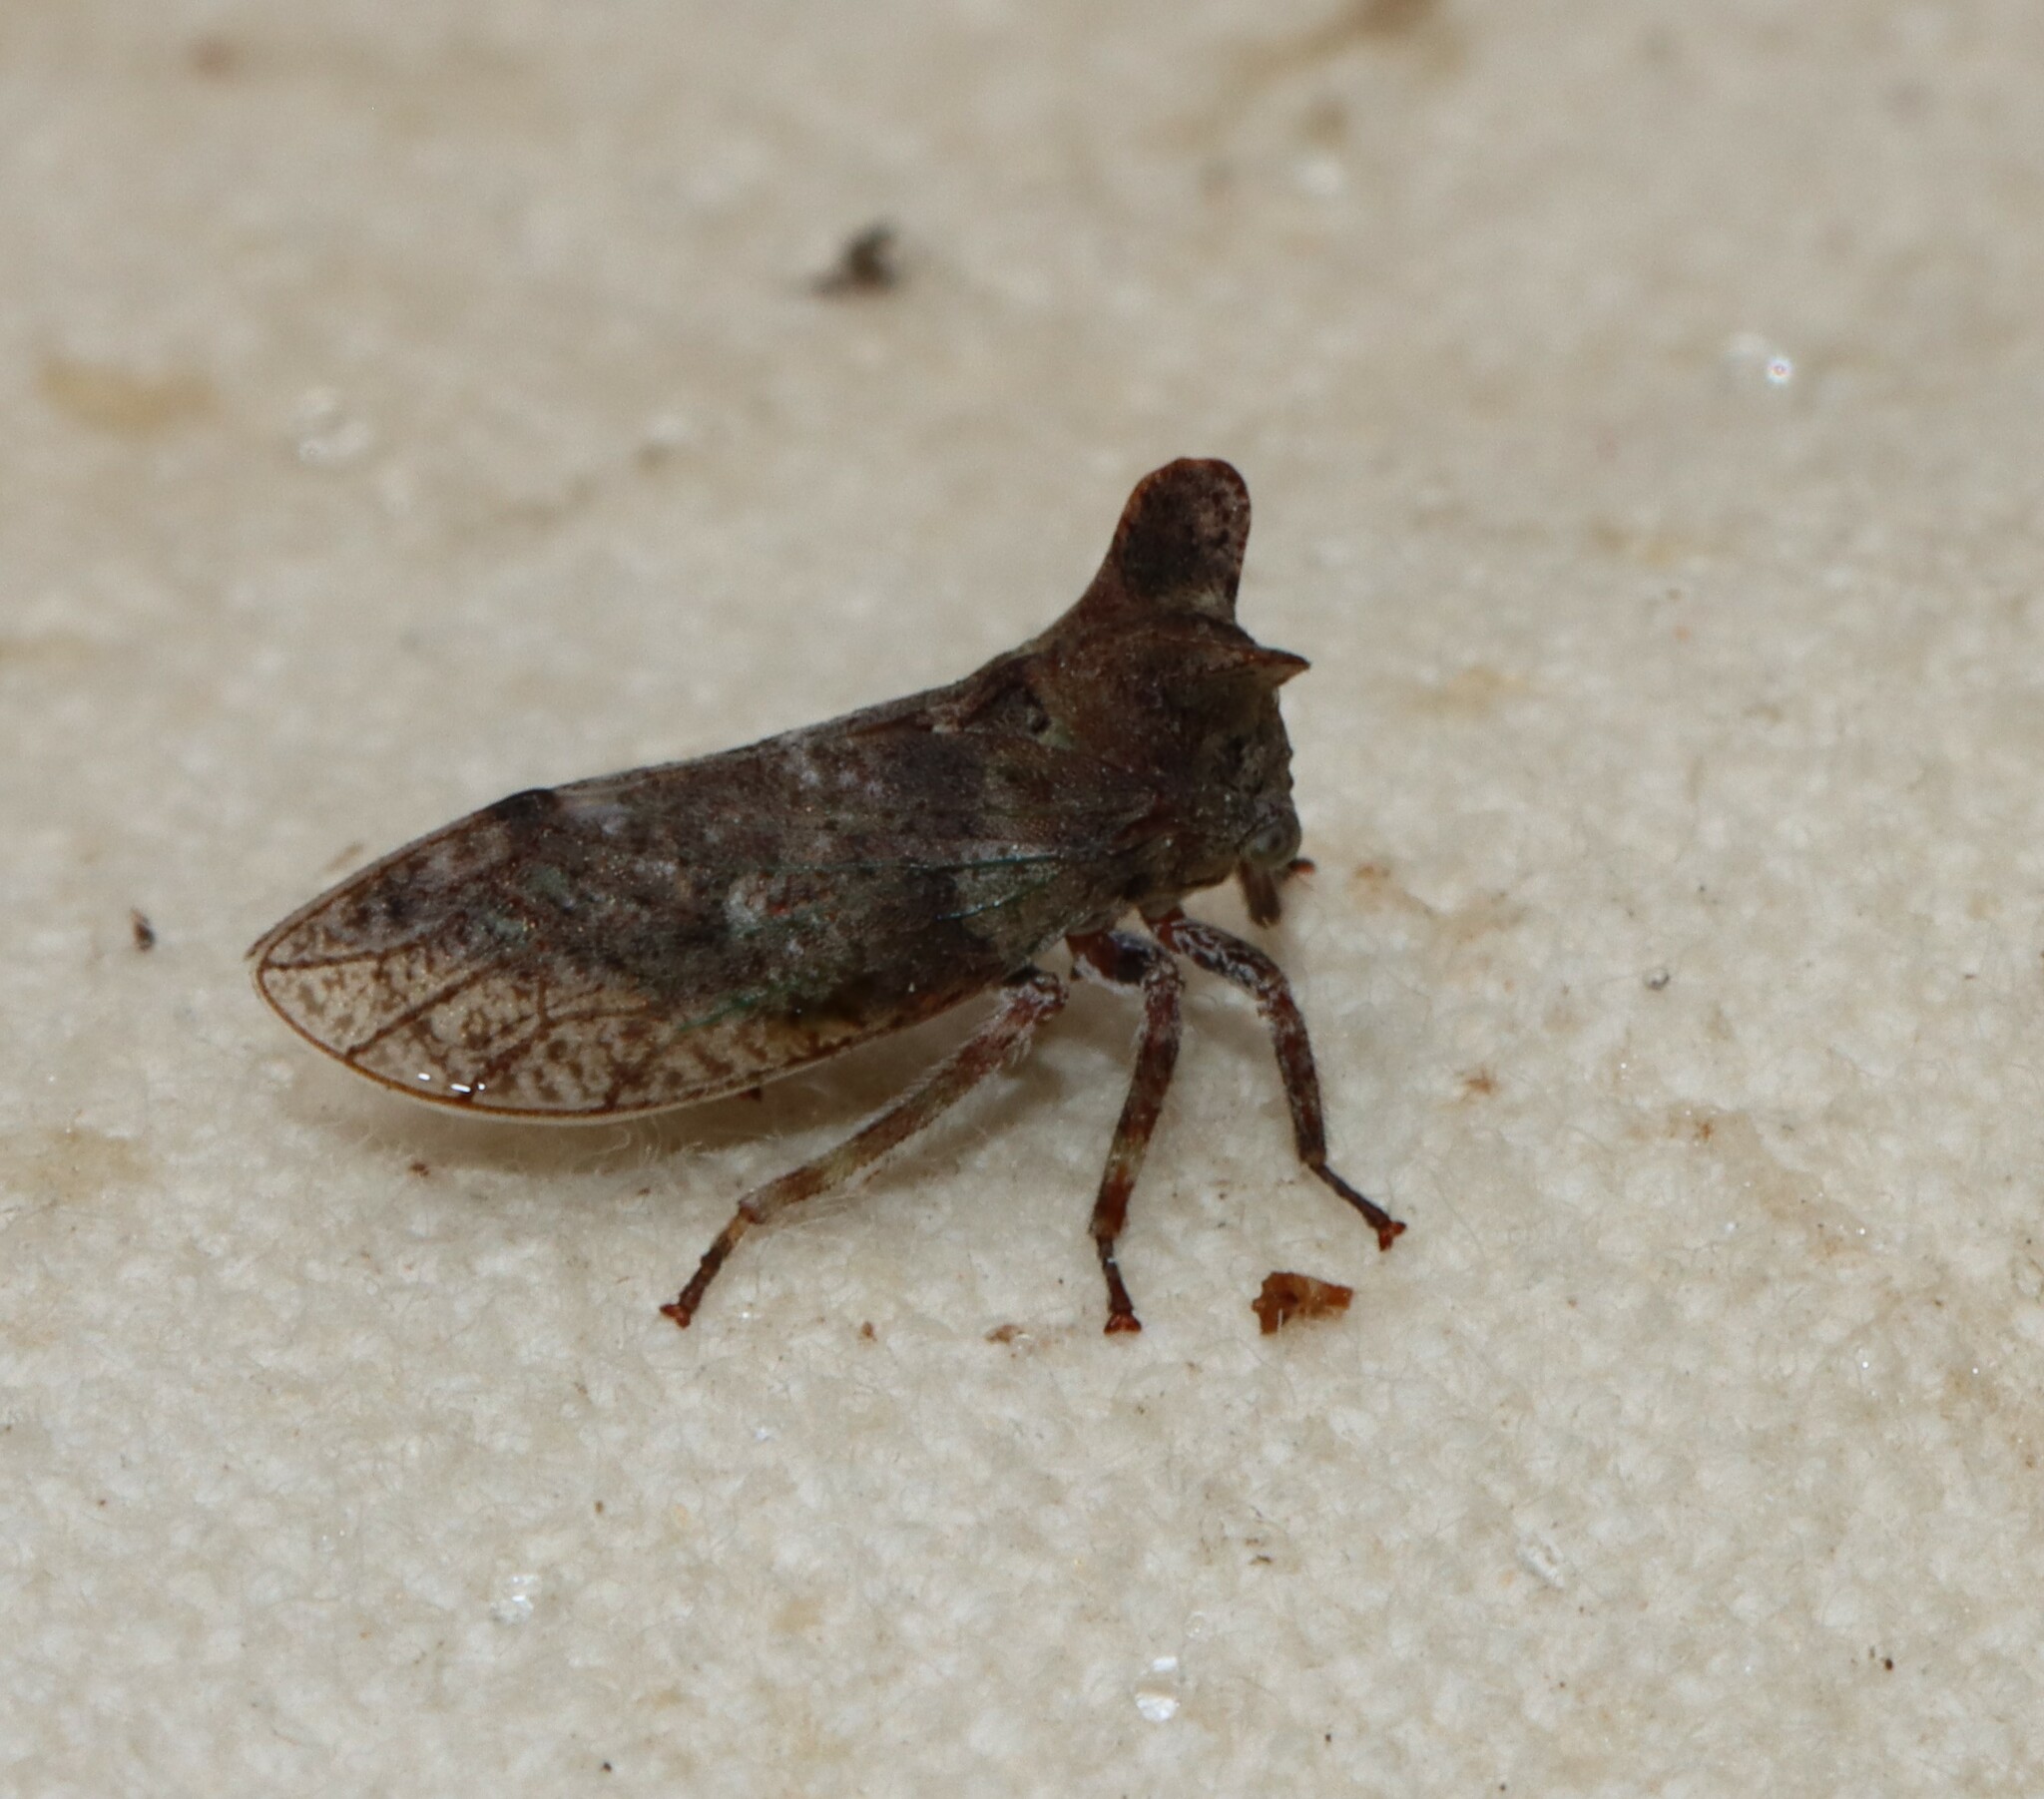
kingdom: Animalia
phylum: Arthropoda
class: Insecta
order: Hemiptera
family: Membracidae
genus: Microcentrus
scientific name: Microcentrus perdita
